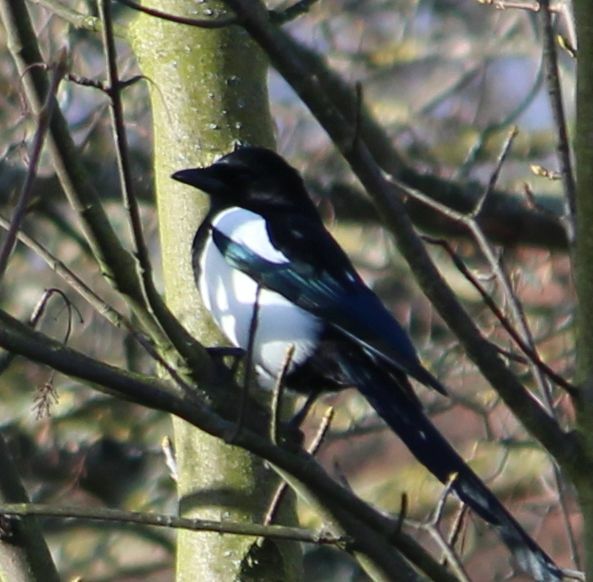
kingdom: Animalia
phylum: Chordata
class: Aves
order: Passeriformes
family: Corvidae
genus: Pica
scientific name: Pica pica
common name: Eurasian magpie
